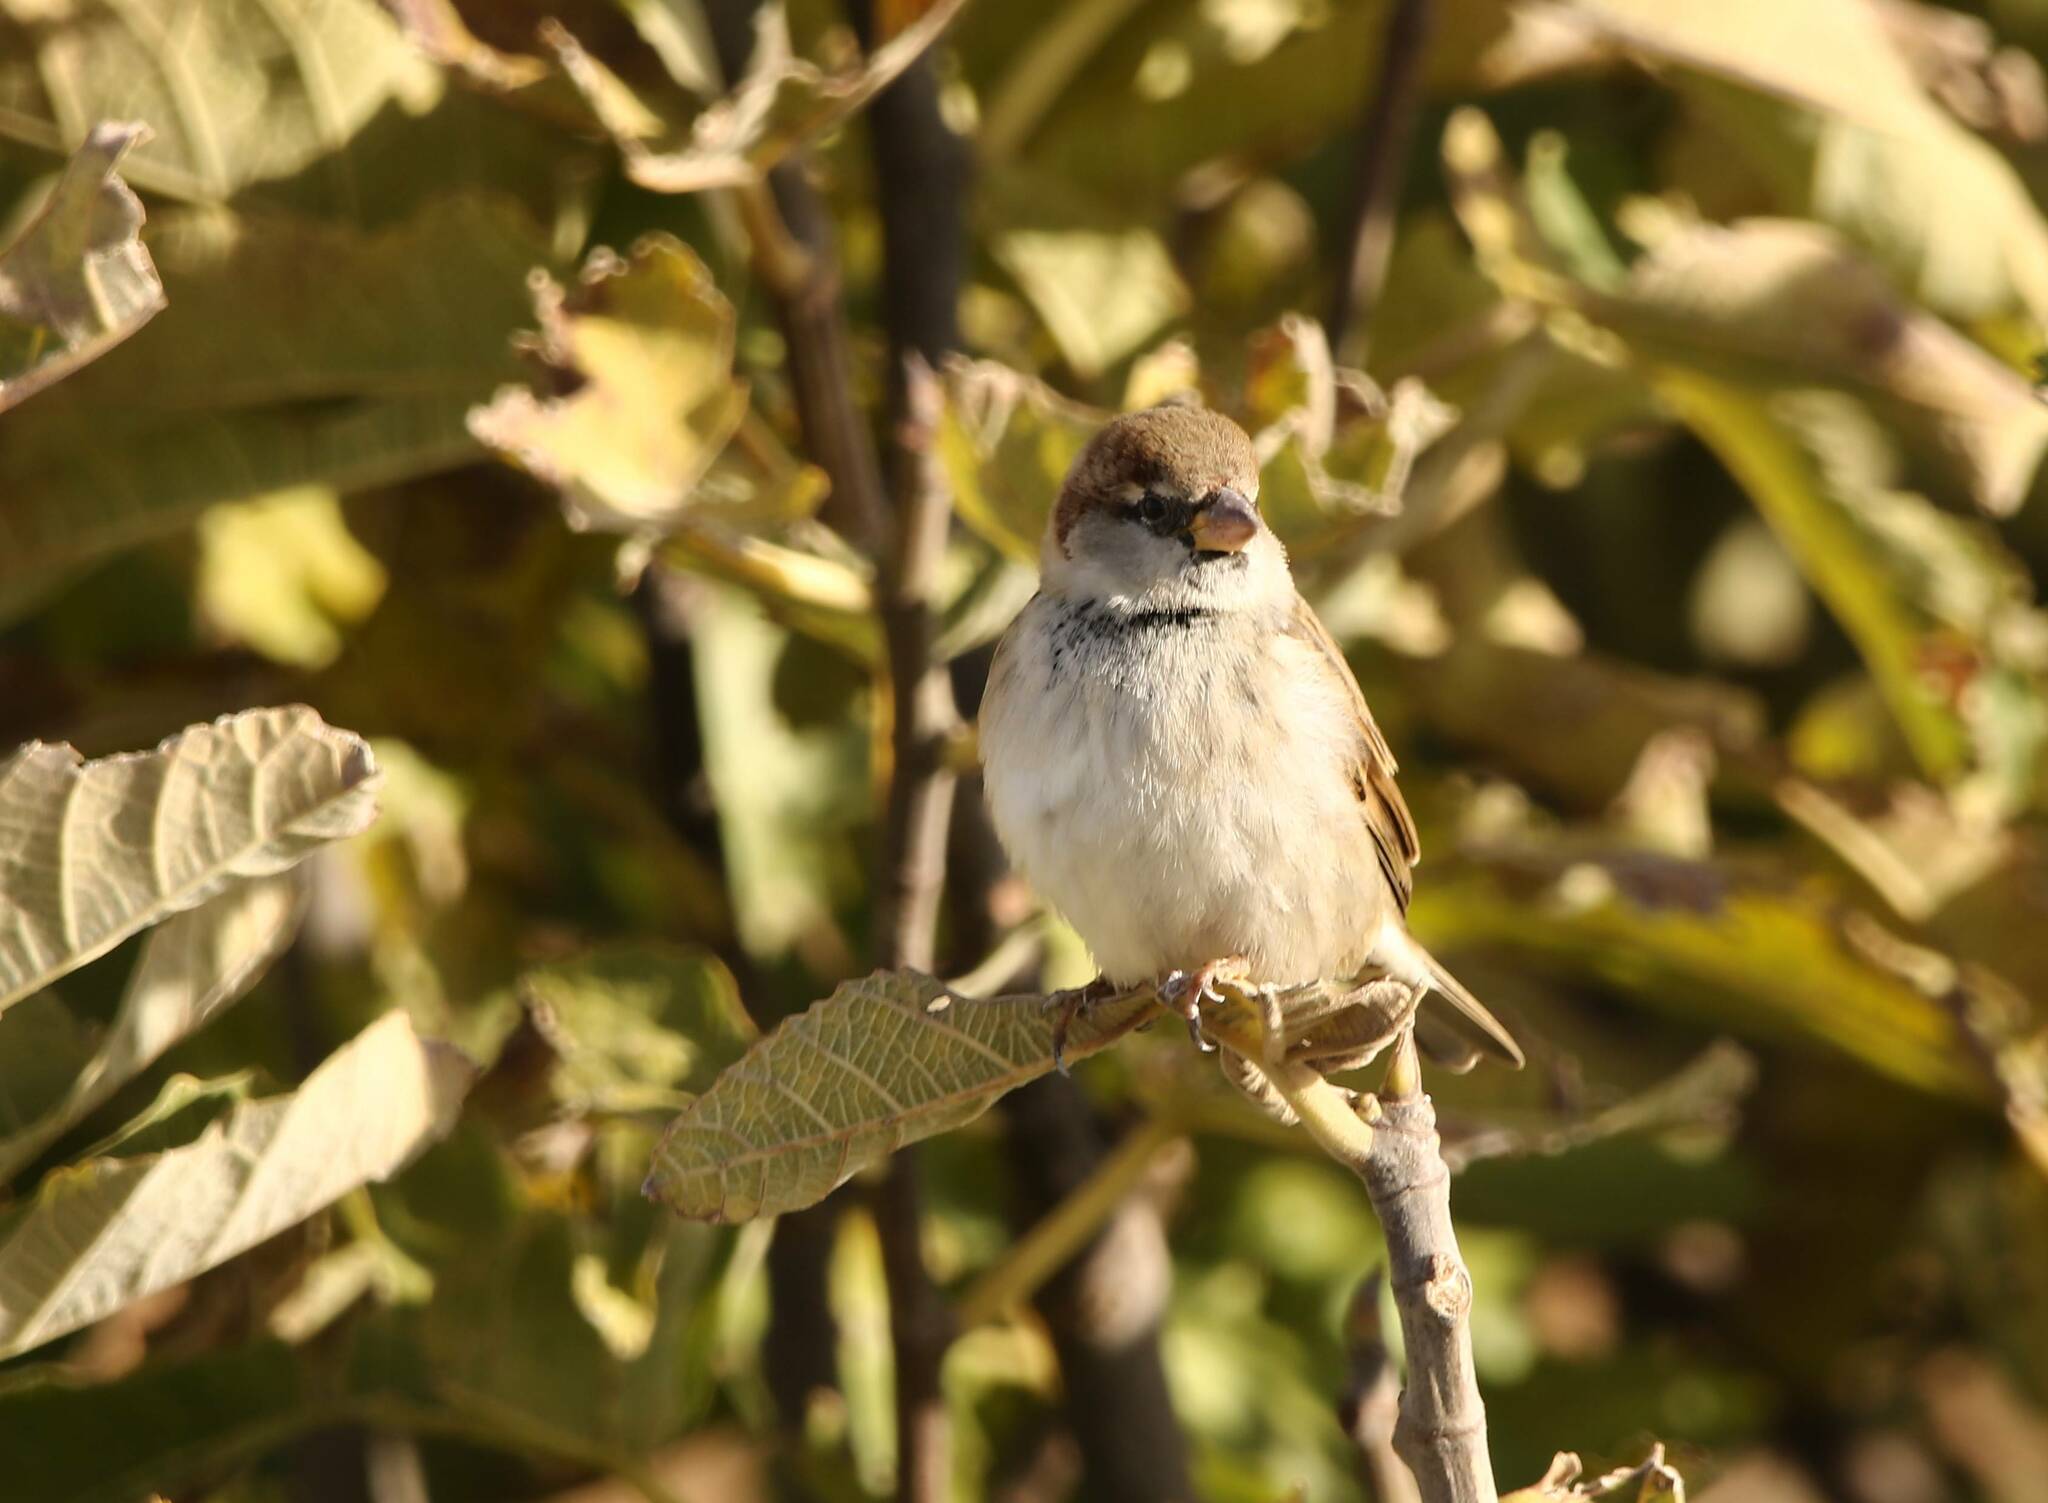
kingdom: Animalia
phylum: Chordata
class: Aves
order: Passeriformes
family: Passeridae
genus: Passer
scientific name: Passer domesticus
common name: House sparrow
